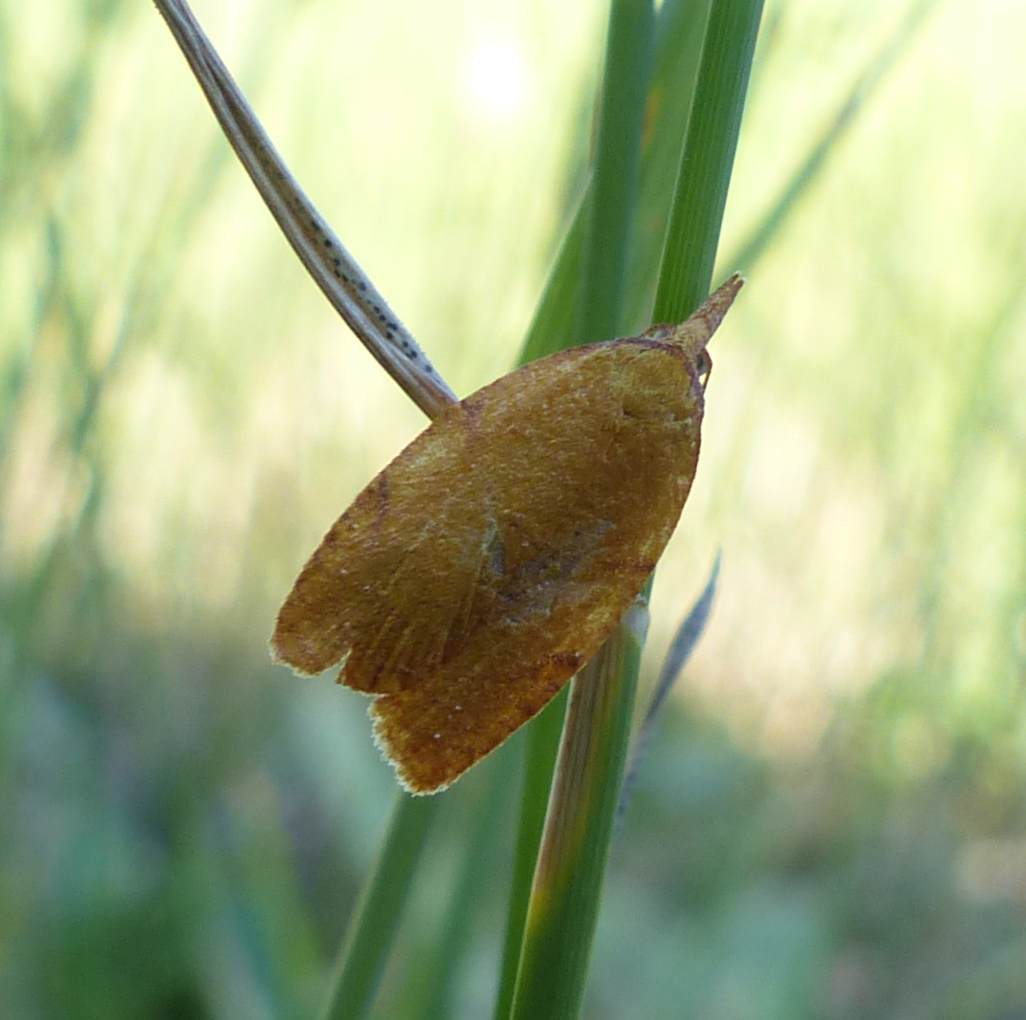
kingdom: Animalia
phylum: Arthropoda
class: Insecta
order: Lepidoptera
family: Tortricidae
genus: Cenopis
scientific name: Cenopis directana
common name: Chokecherry leafroller moth
